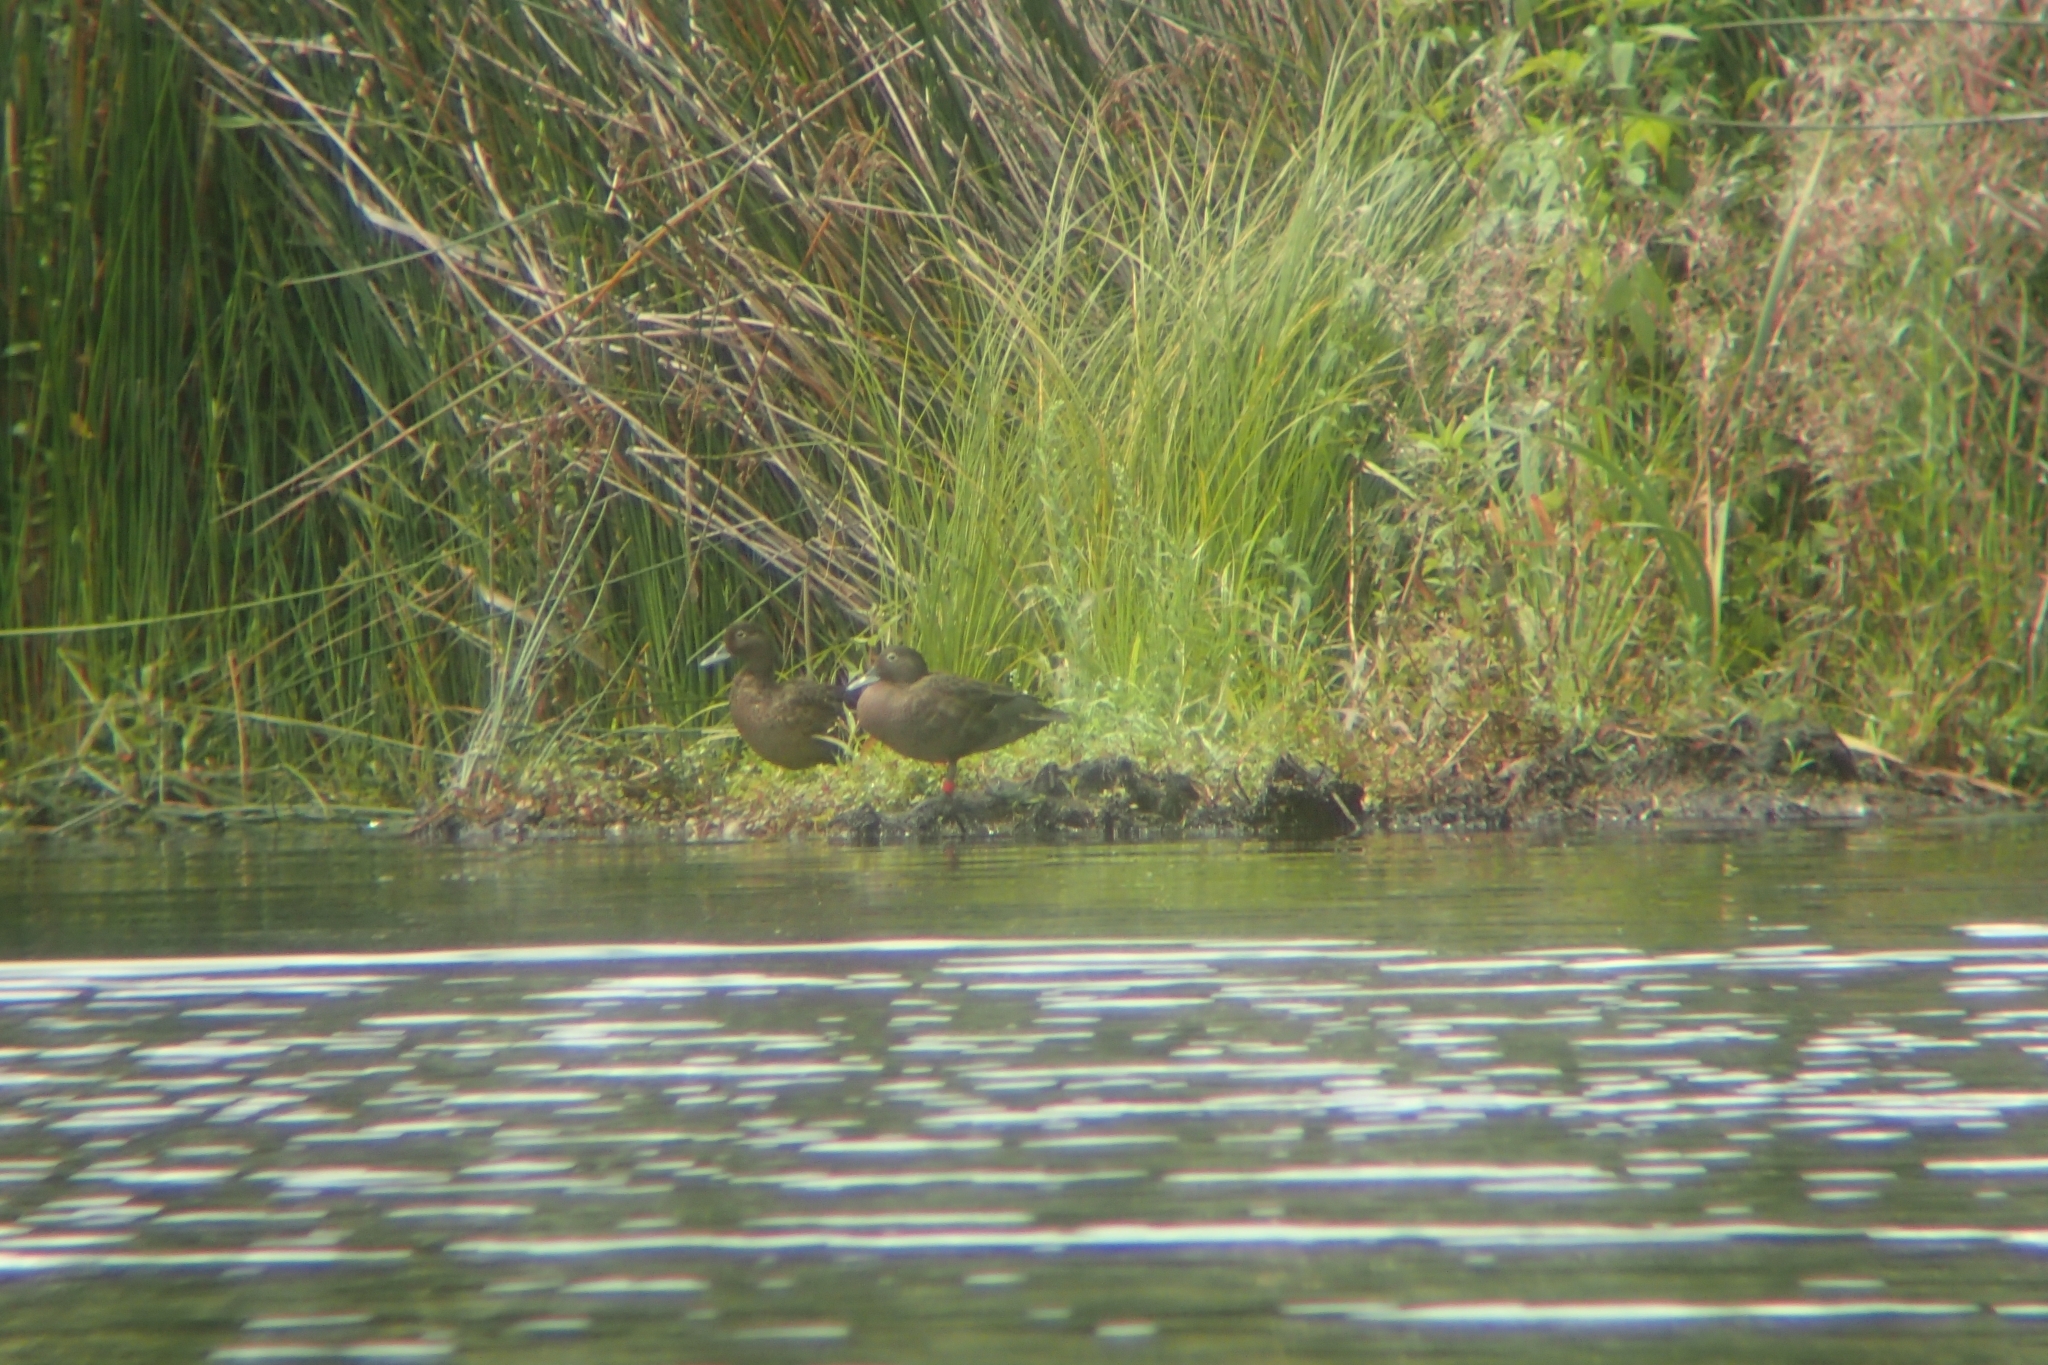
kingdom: Animalia
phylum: Chordata
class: Aves
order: Anseriformes
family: Anatidae
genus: Anas
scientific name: Anas chlorotis
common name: Brown teal
